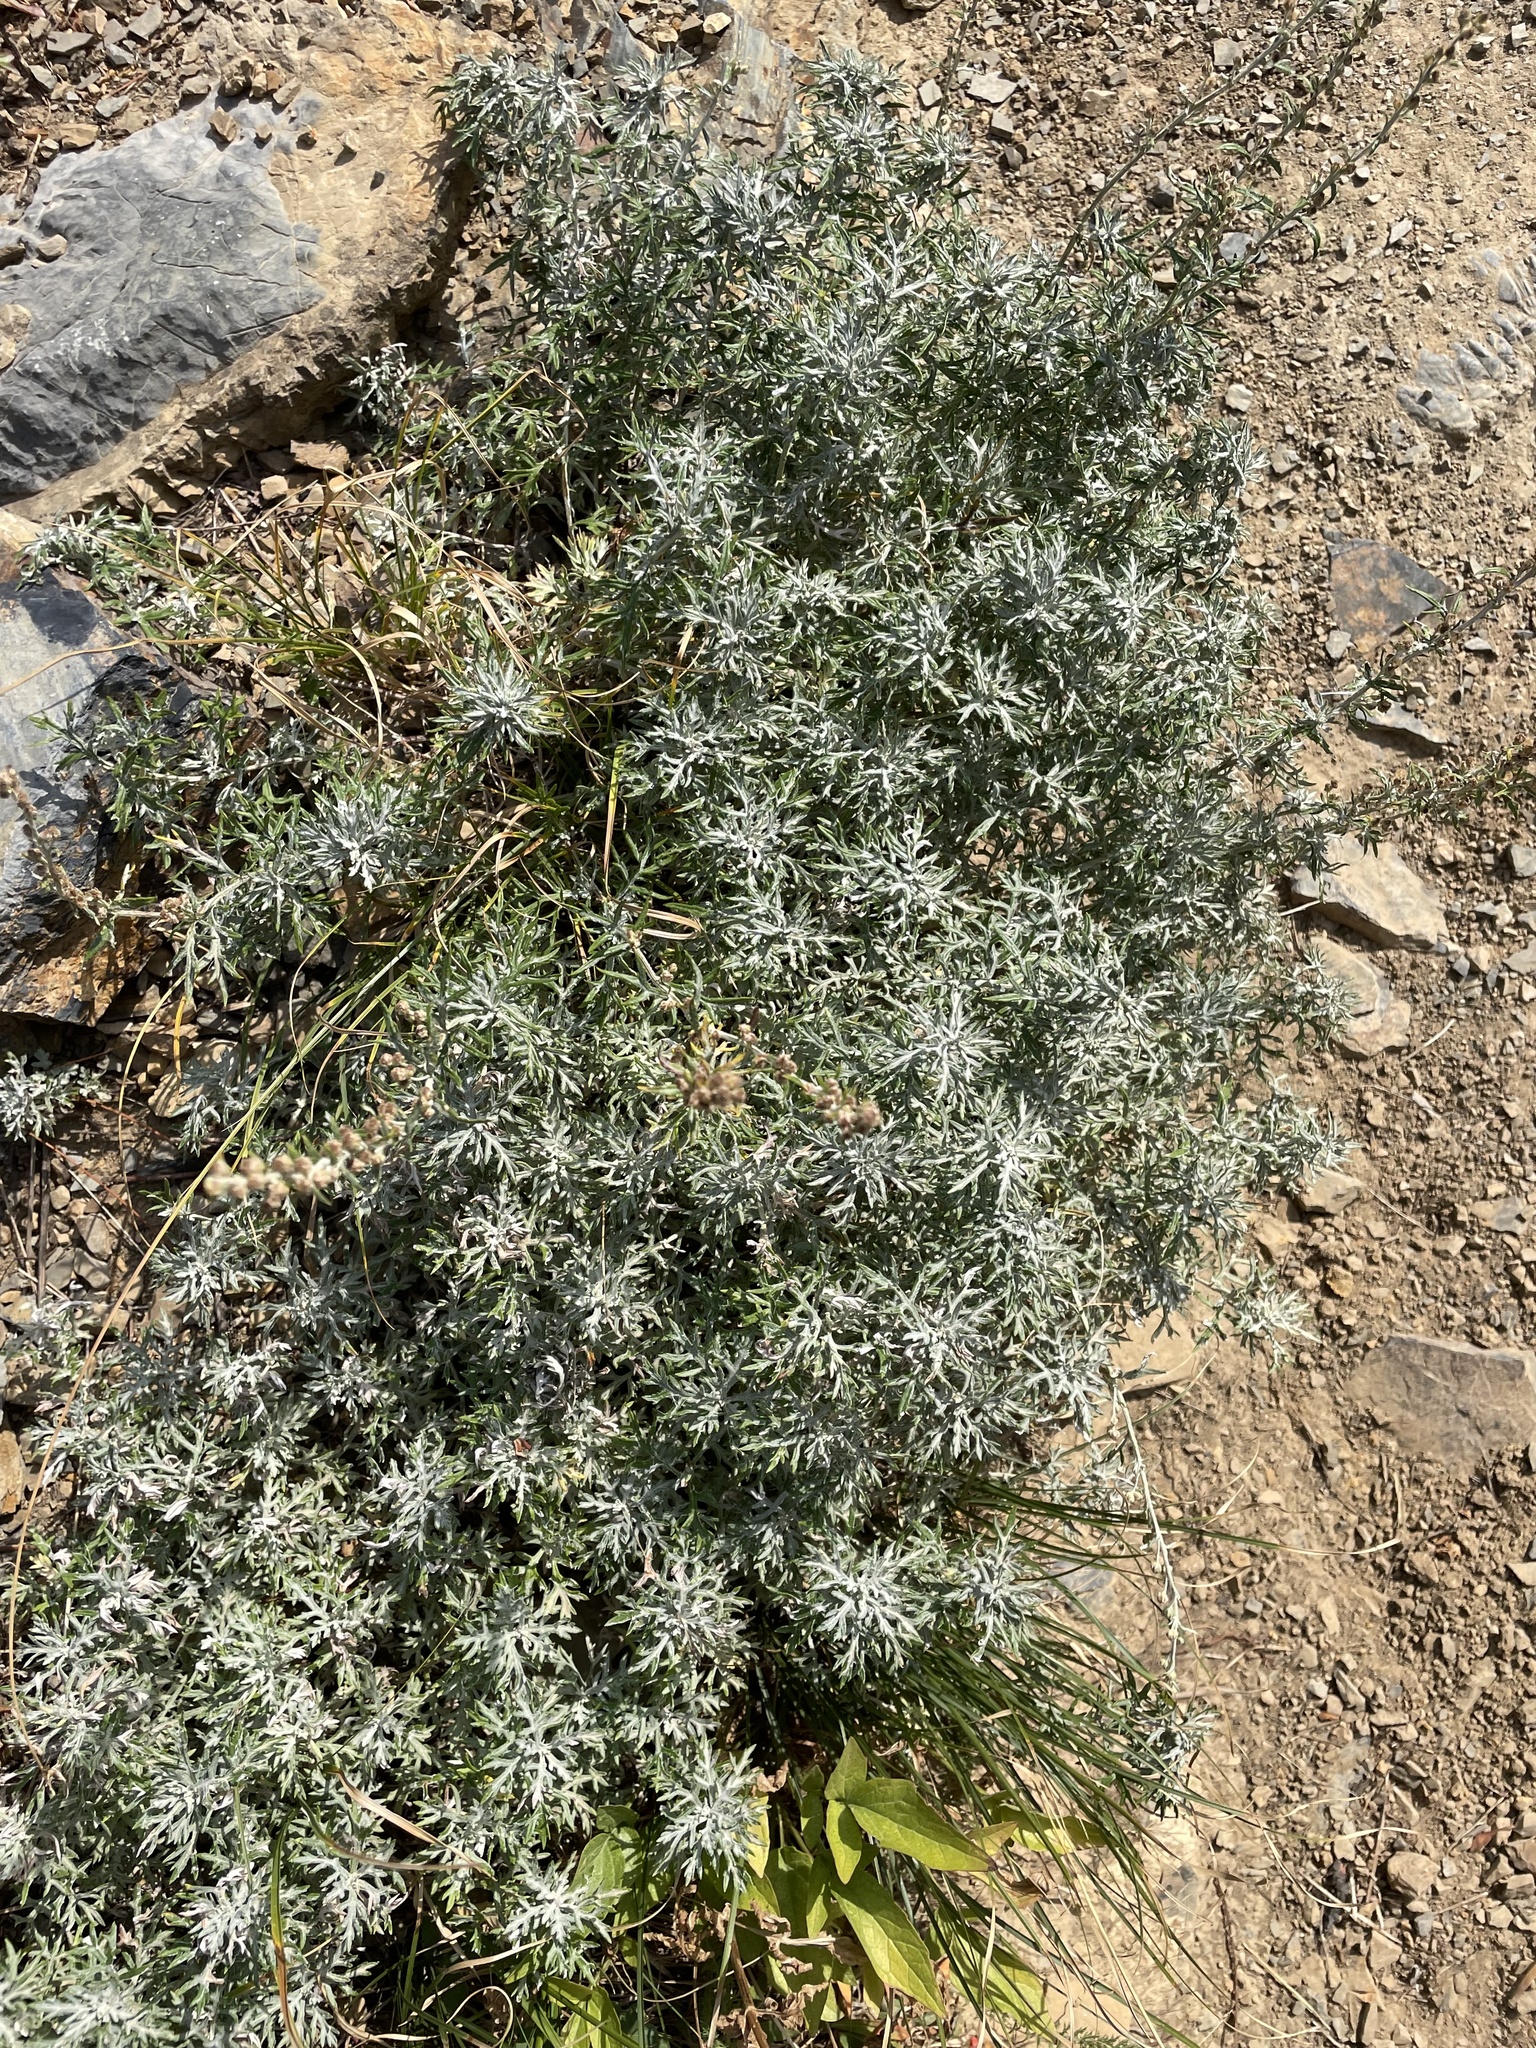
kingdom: Plantae
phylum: Tracheophyta
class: Magnoliopsida
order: Asterales
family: Asteraceae
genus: Artemisia
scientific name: Artemisia michauxiana
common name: Lemon sagewort
